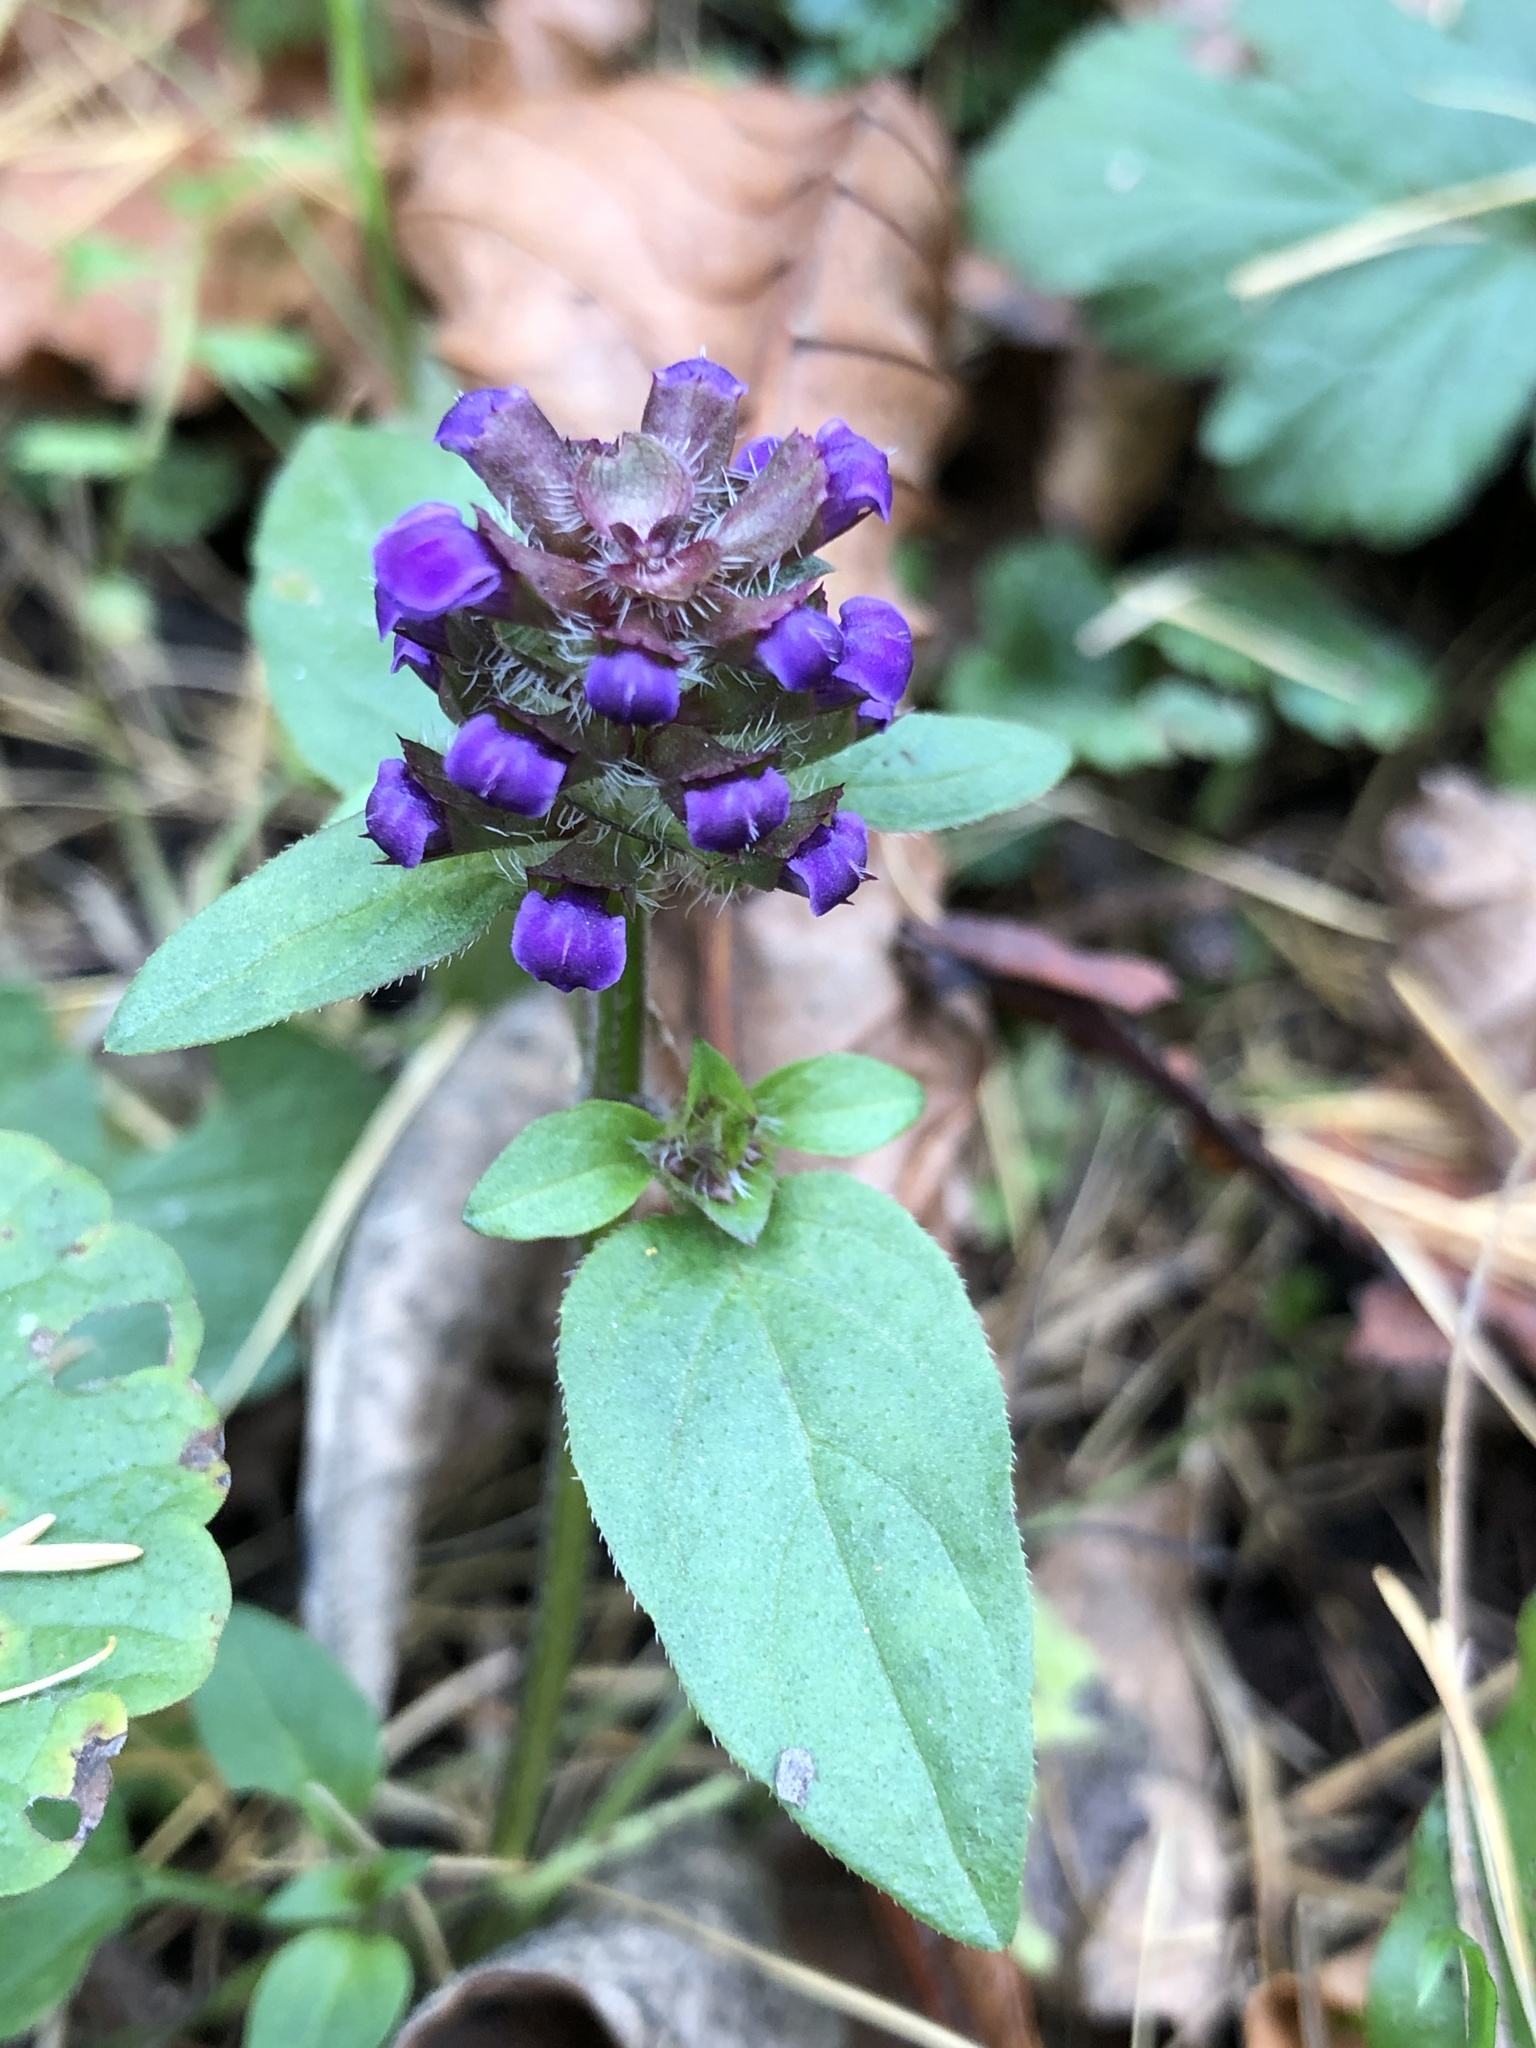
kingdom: Plantae
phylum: Tracheophyta
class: Magnoliopsida
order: Lamiales
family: Lamiaceae
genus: Prunella
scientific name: Prunella vulgaris
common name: Heal-all
